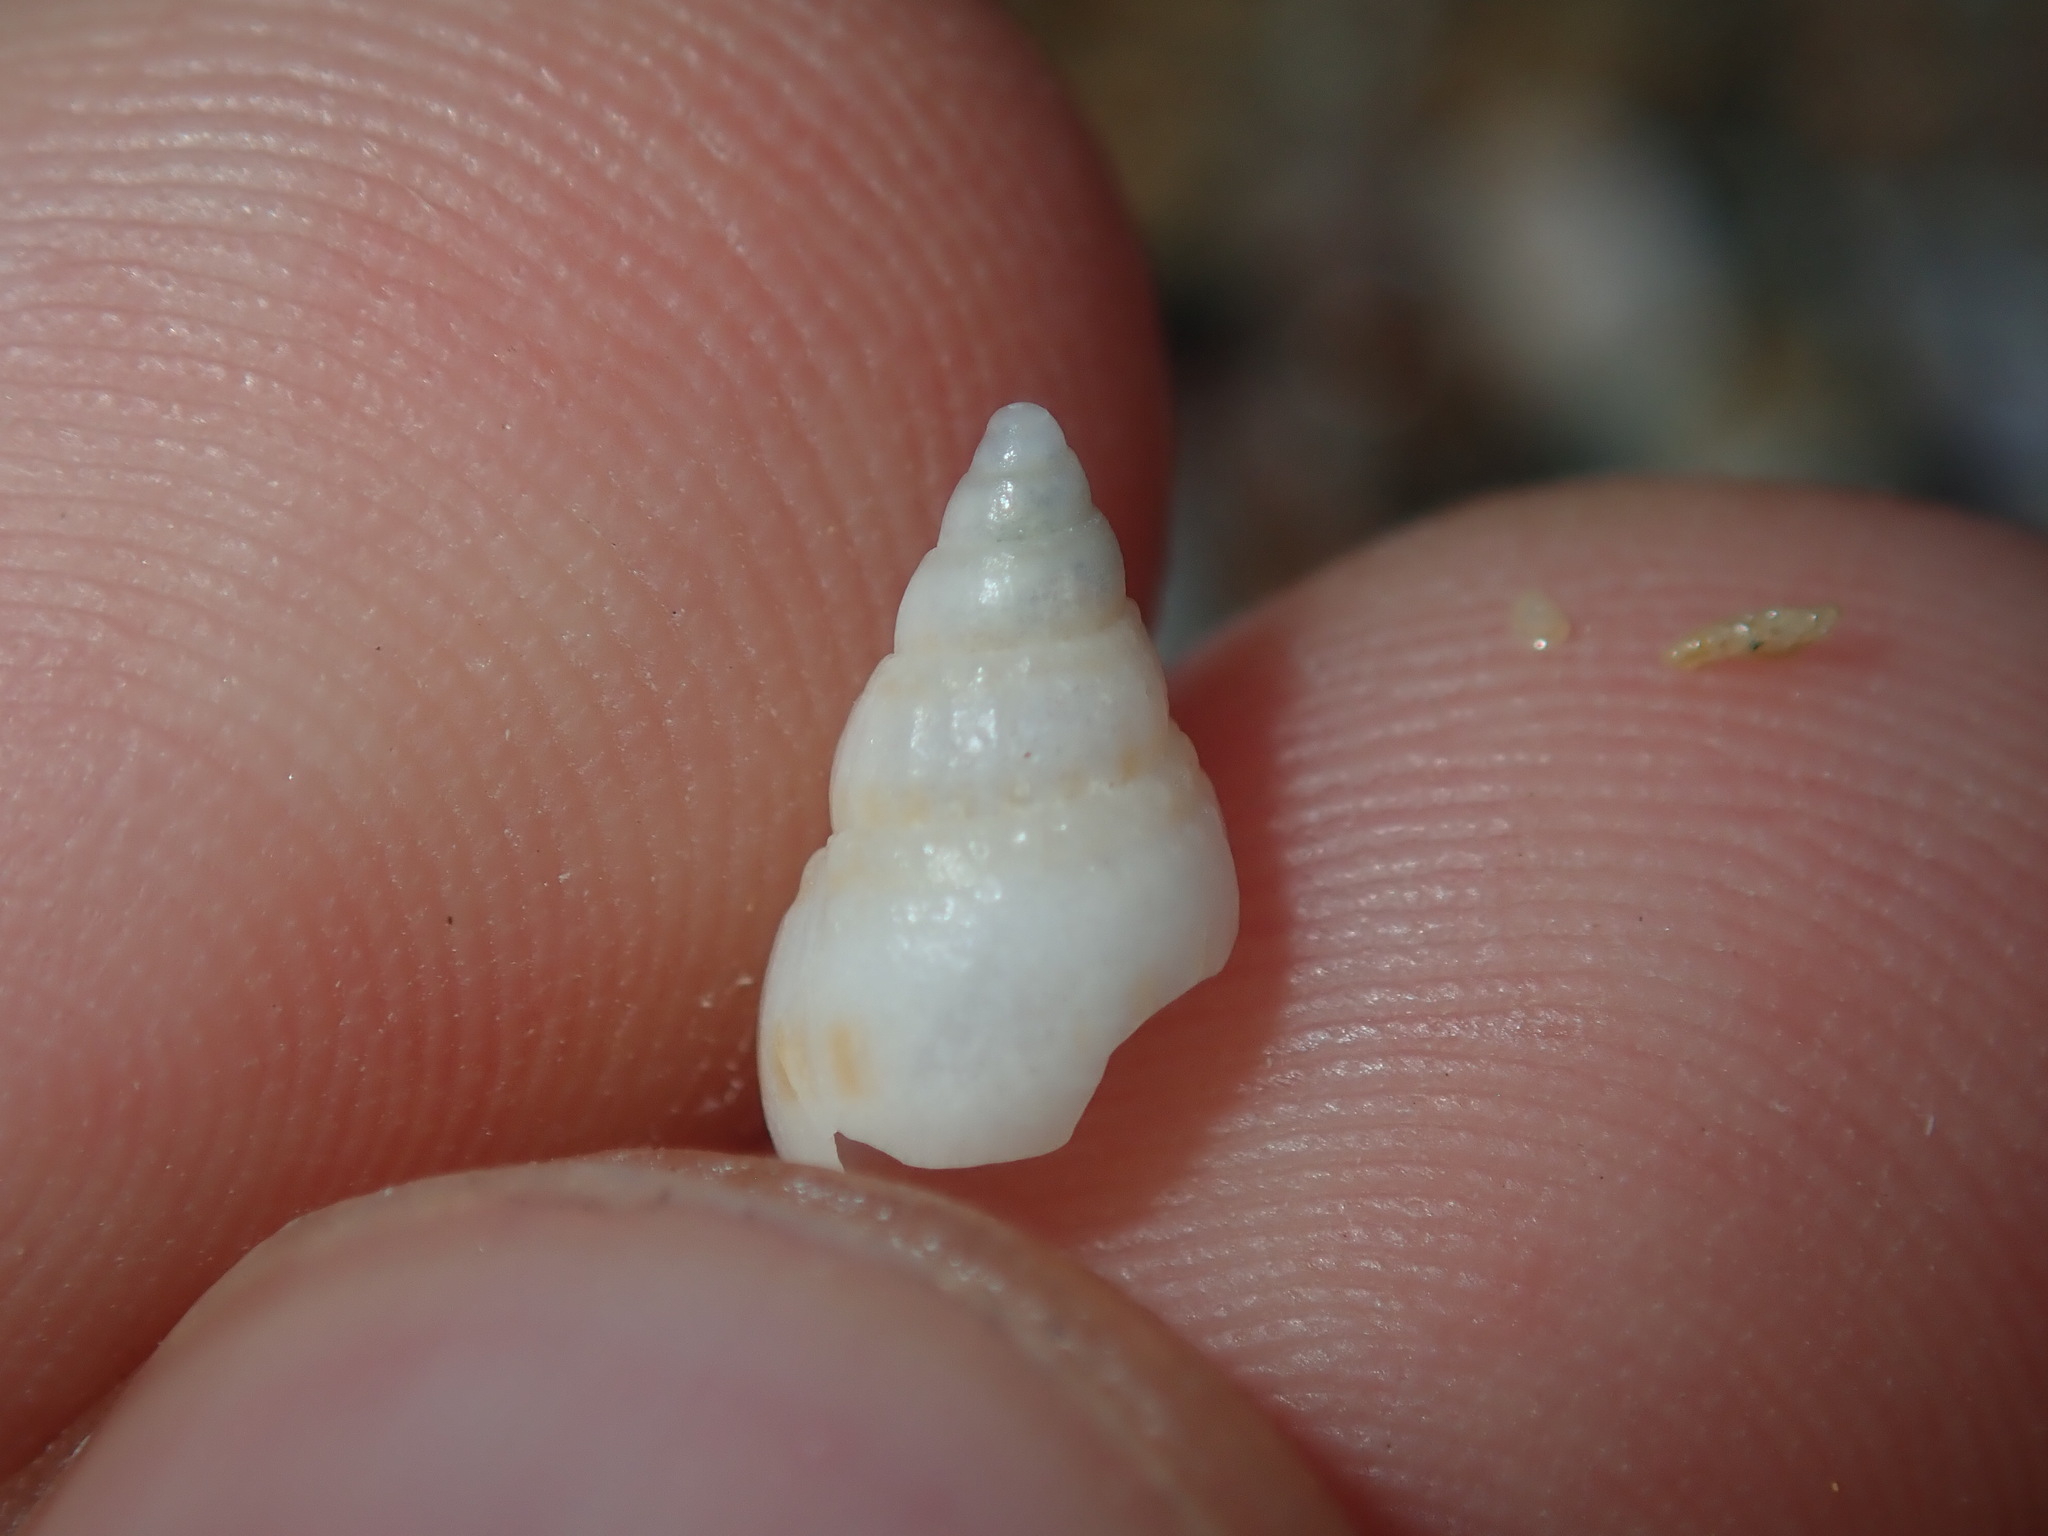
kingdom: Animalia
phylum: Mollusca
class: Gastropoda
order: Neogastropoda
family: Nassariidae
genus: Nassarius
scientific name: Nassarius nigellus
